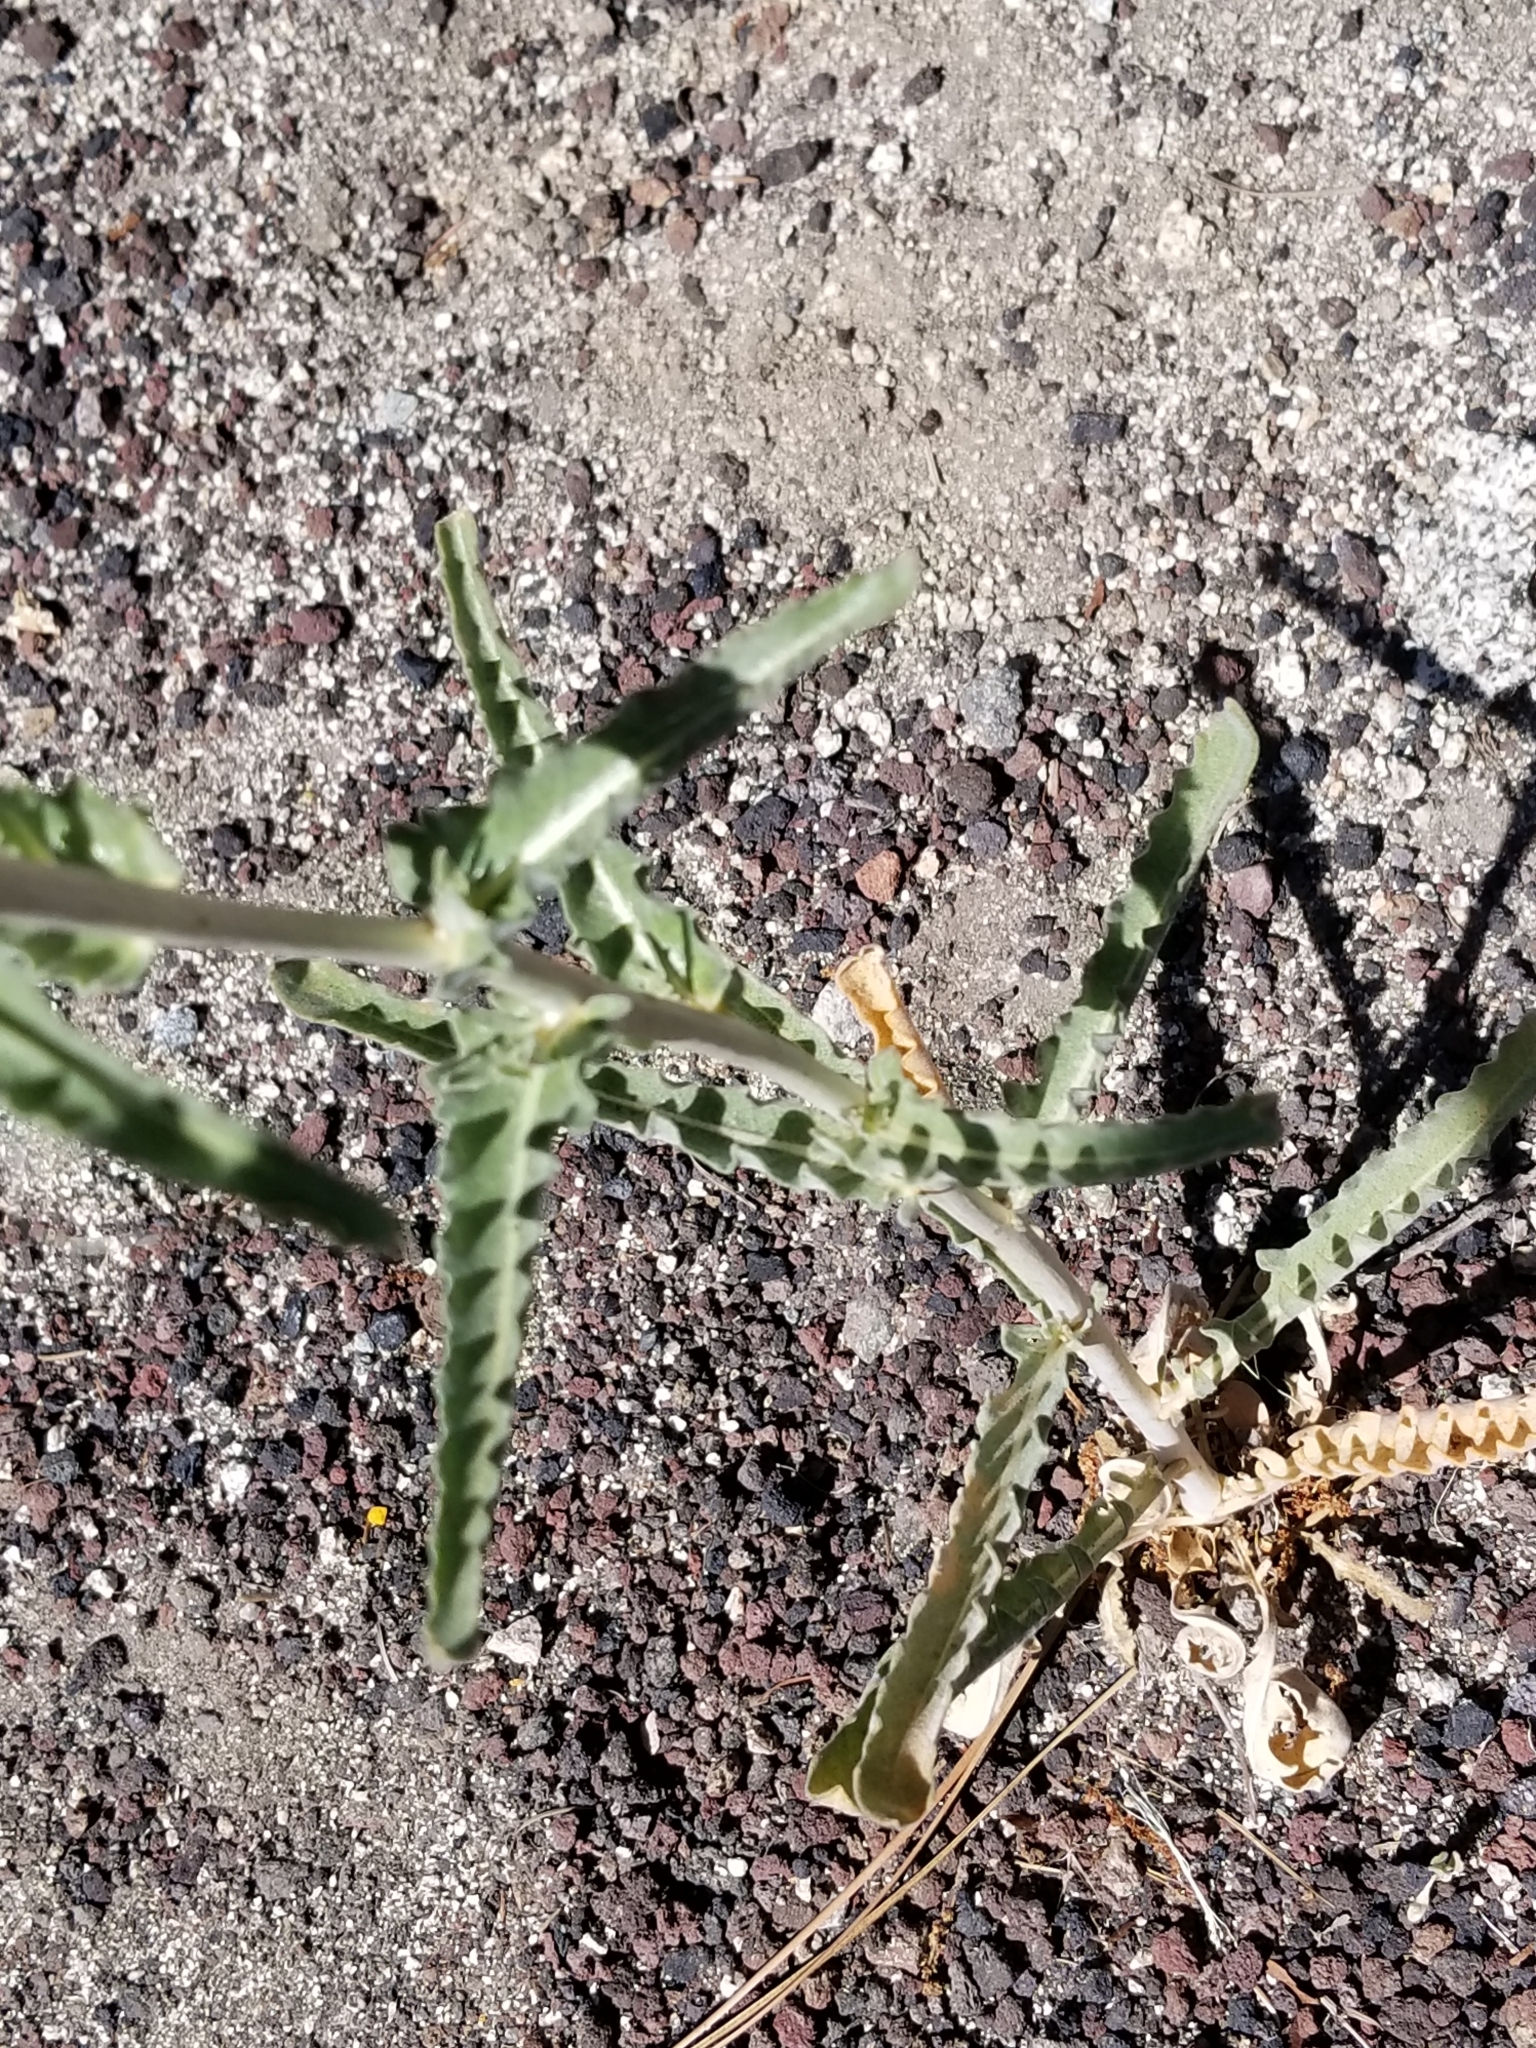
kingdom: Plantae
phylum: Tracheophyta
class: Magnoliopsida
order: Cornales
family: Loasaceae
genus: Mentzelia
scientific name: Mentzelia laevicaulis
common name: Smooth-stem blazingstar
